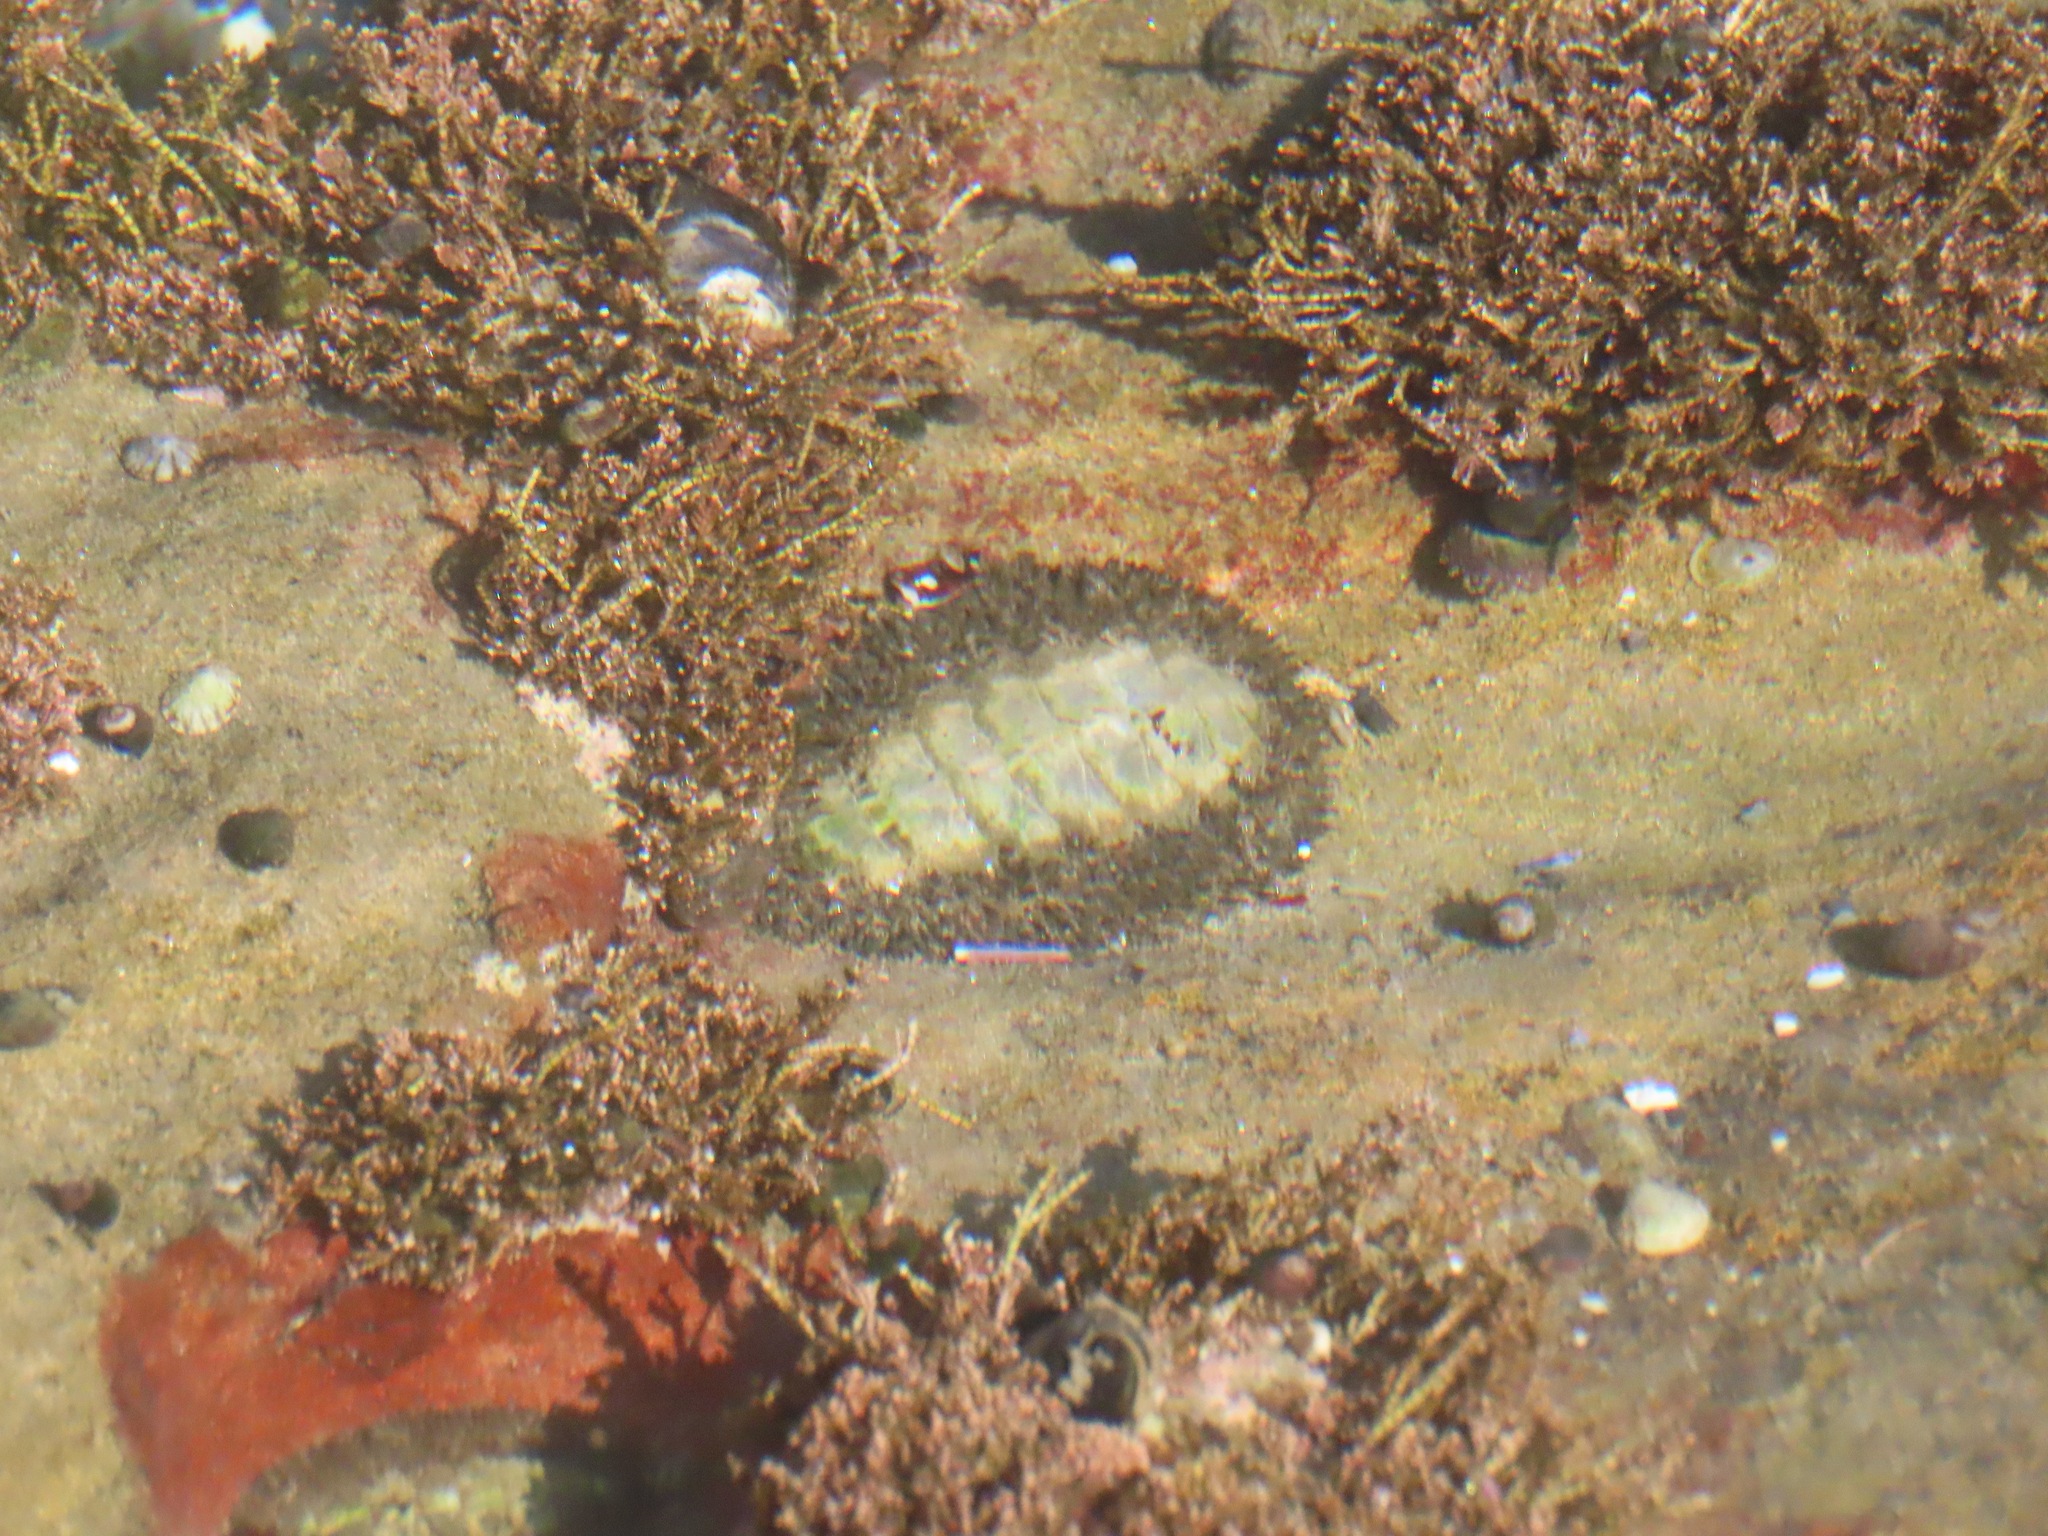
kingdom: Animalia
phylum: Mollusca
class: Polyplacophora
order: Chitonida
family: Mopaliidae
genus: Mopalia
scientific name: Mopalia muscosa
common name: Mossy chiton
